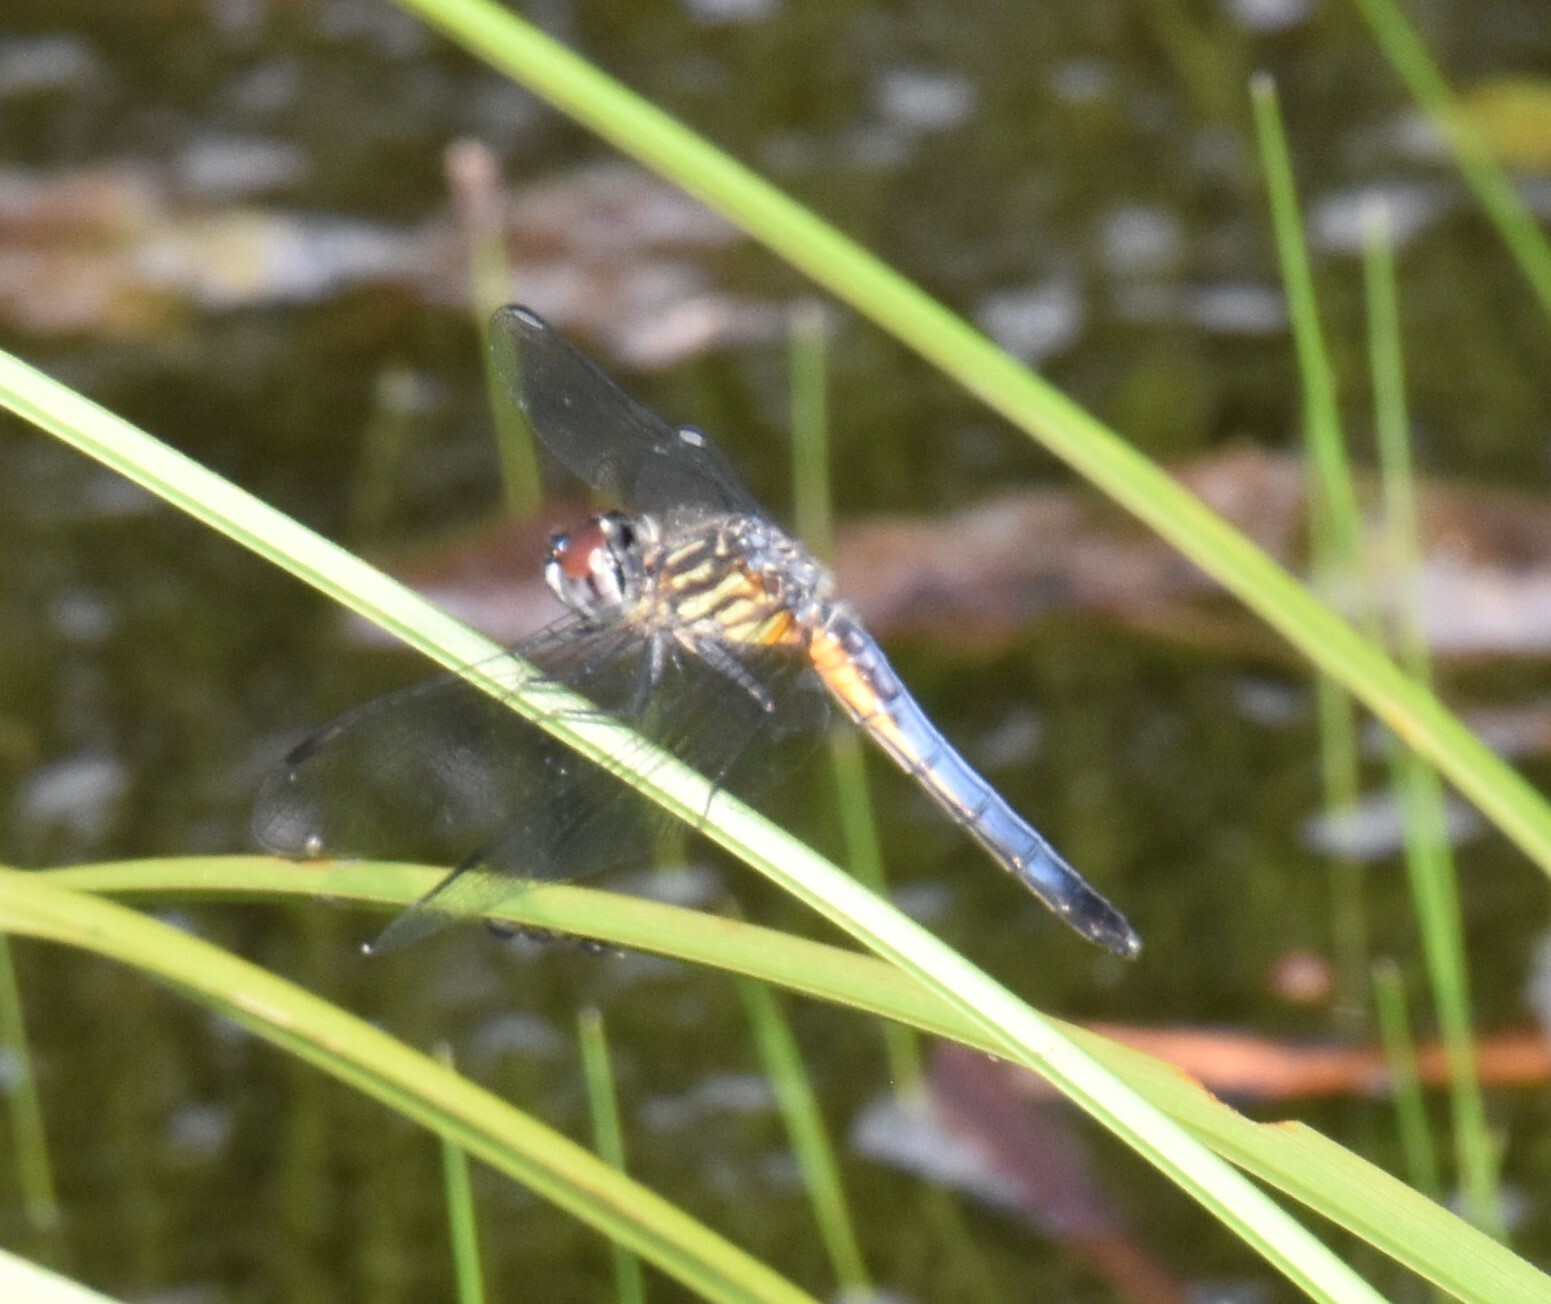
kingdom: Animalia
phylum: Arthropoda
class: Insecta
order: Odonata
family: Libellulidae
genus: Pachydiplax
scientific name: Pachydiplax longipennis
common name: Blue dasher
